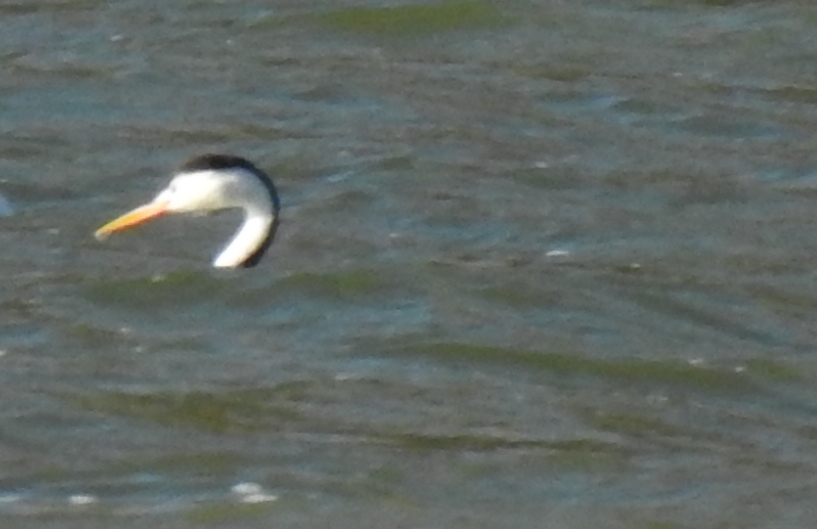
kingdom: Animalia
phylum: Chordata
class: Aves
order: Podicipediformes
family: Podicipedidae
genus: Aechmophorus
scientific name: Aechmophorus clarkii
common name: Clark's grebe
